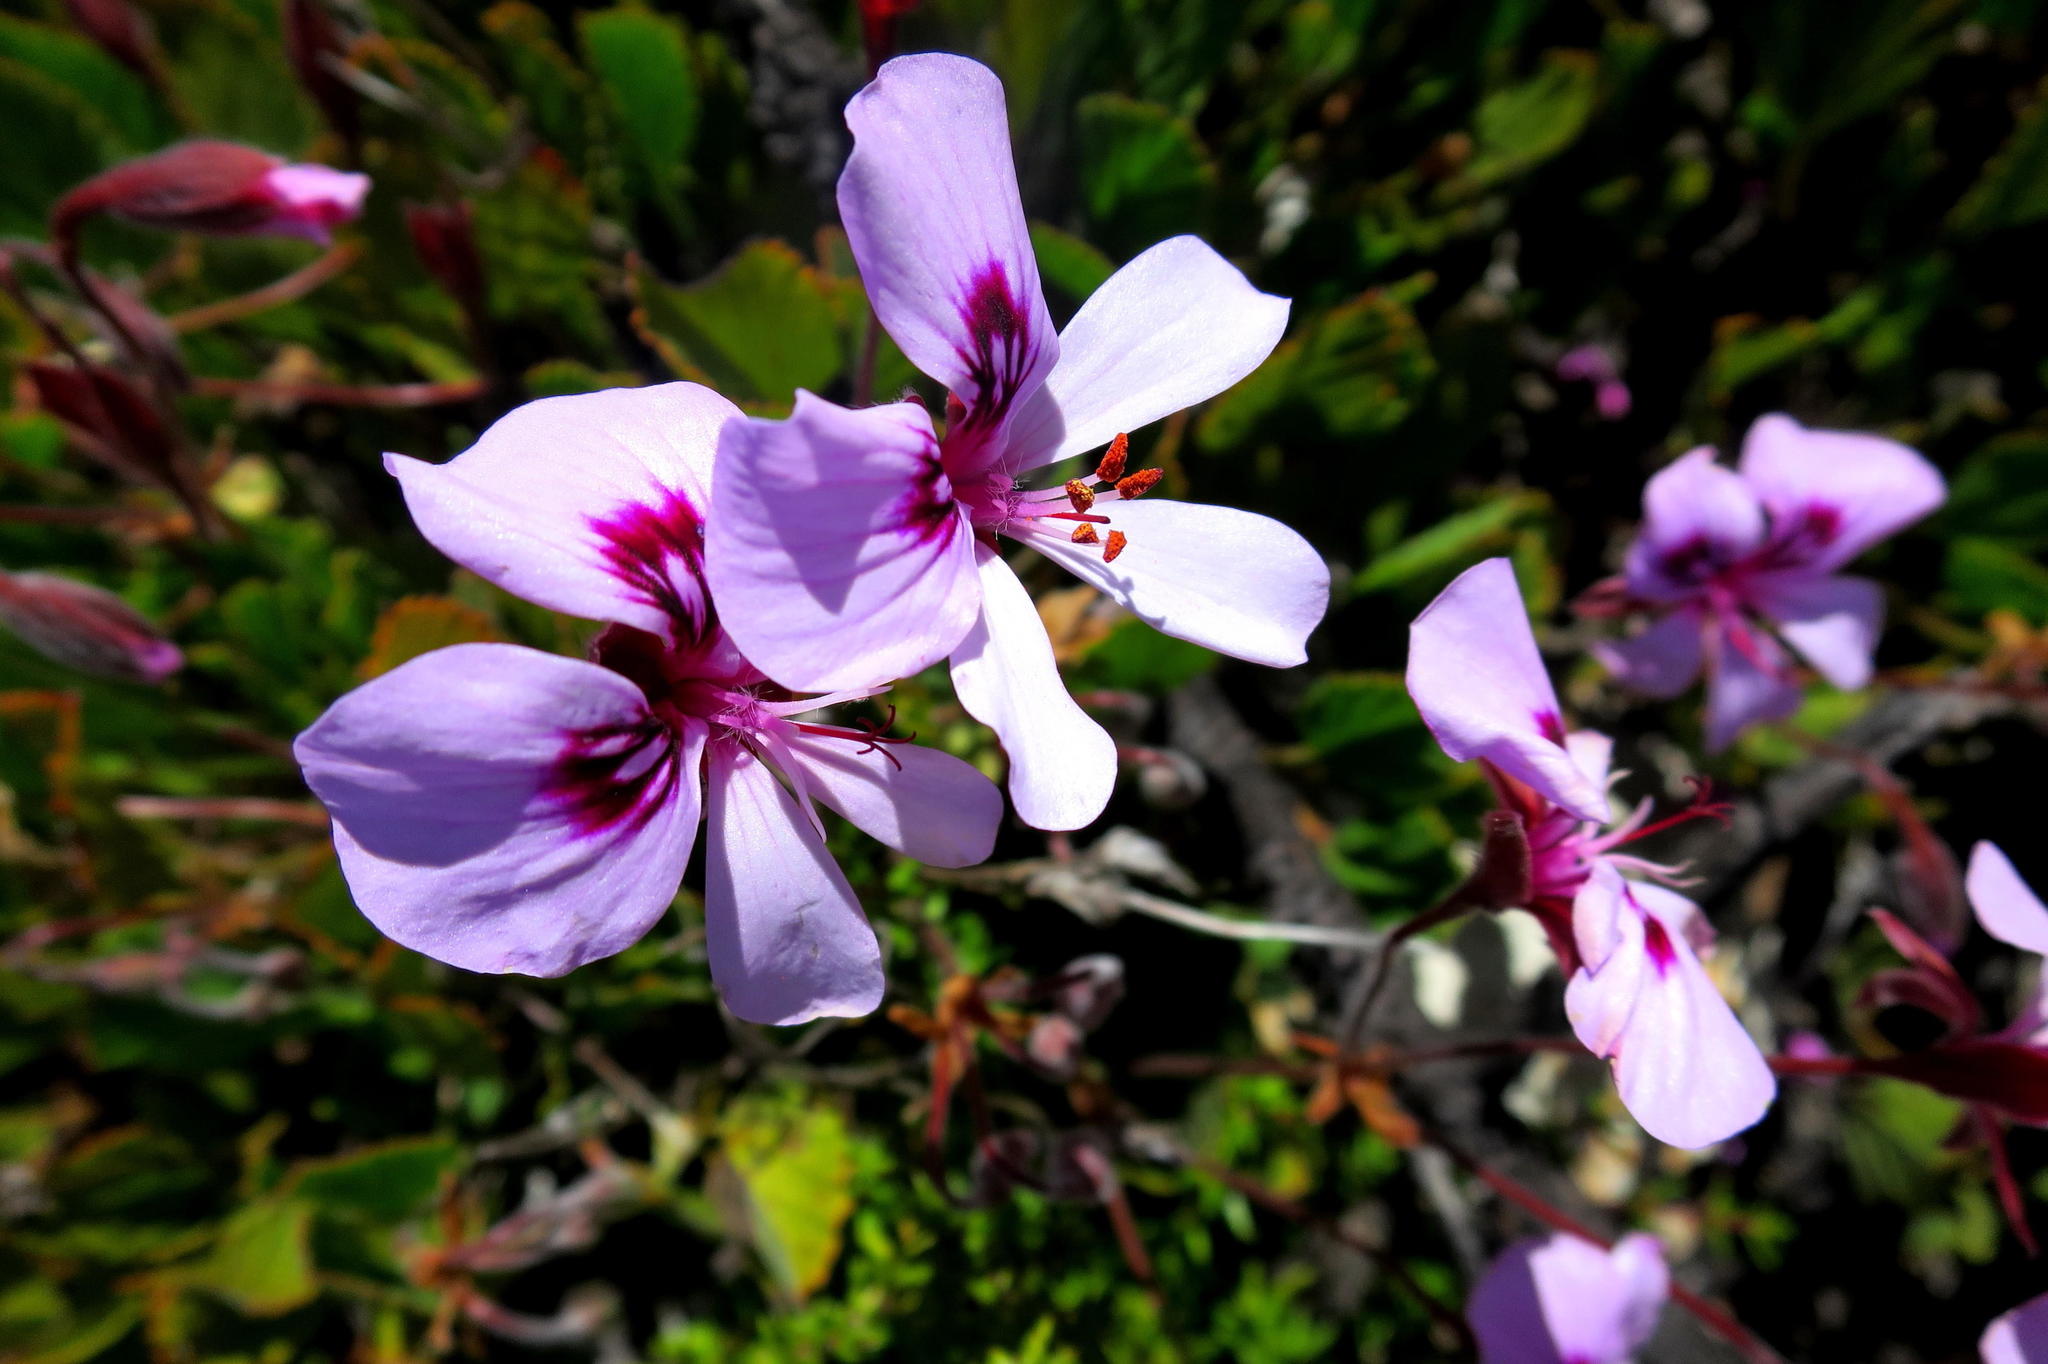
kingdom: Plantae
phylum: Tracheophyta
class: Magnoliopsida
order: Geraniales
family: Geraniaceae
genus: Pelargonium
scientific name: Pelargonium ovale
